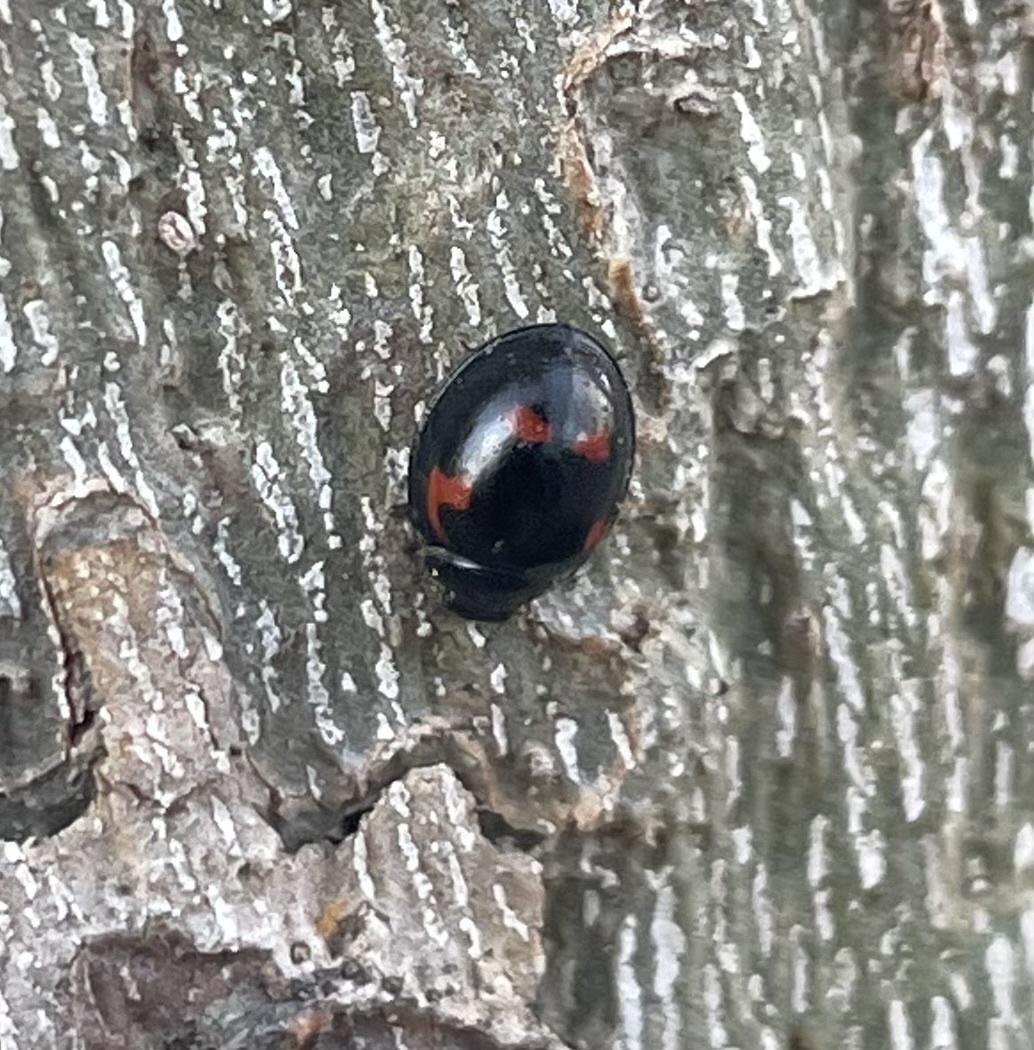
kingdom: Animalia
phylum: Arthropoda
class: Insecta
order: Coleoptera
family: Coccinellidae
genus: Brumus
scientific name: Brumus quadripustulatus
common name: Ladybird beetle
